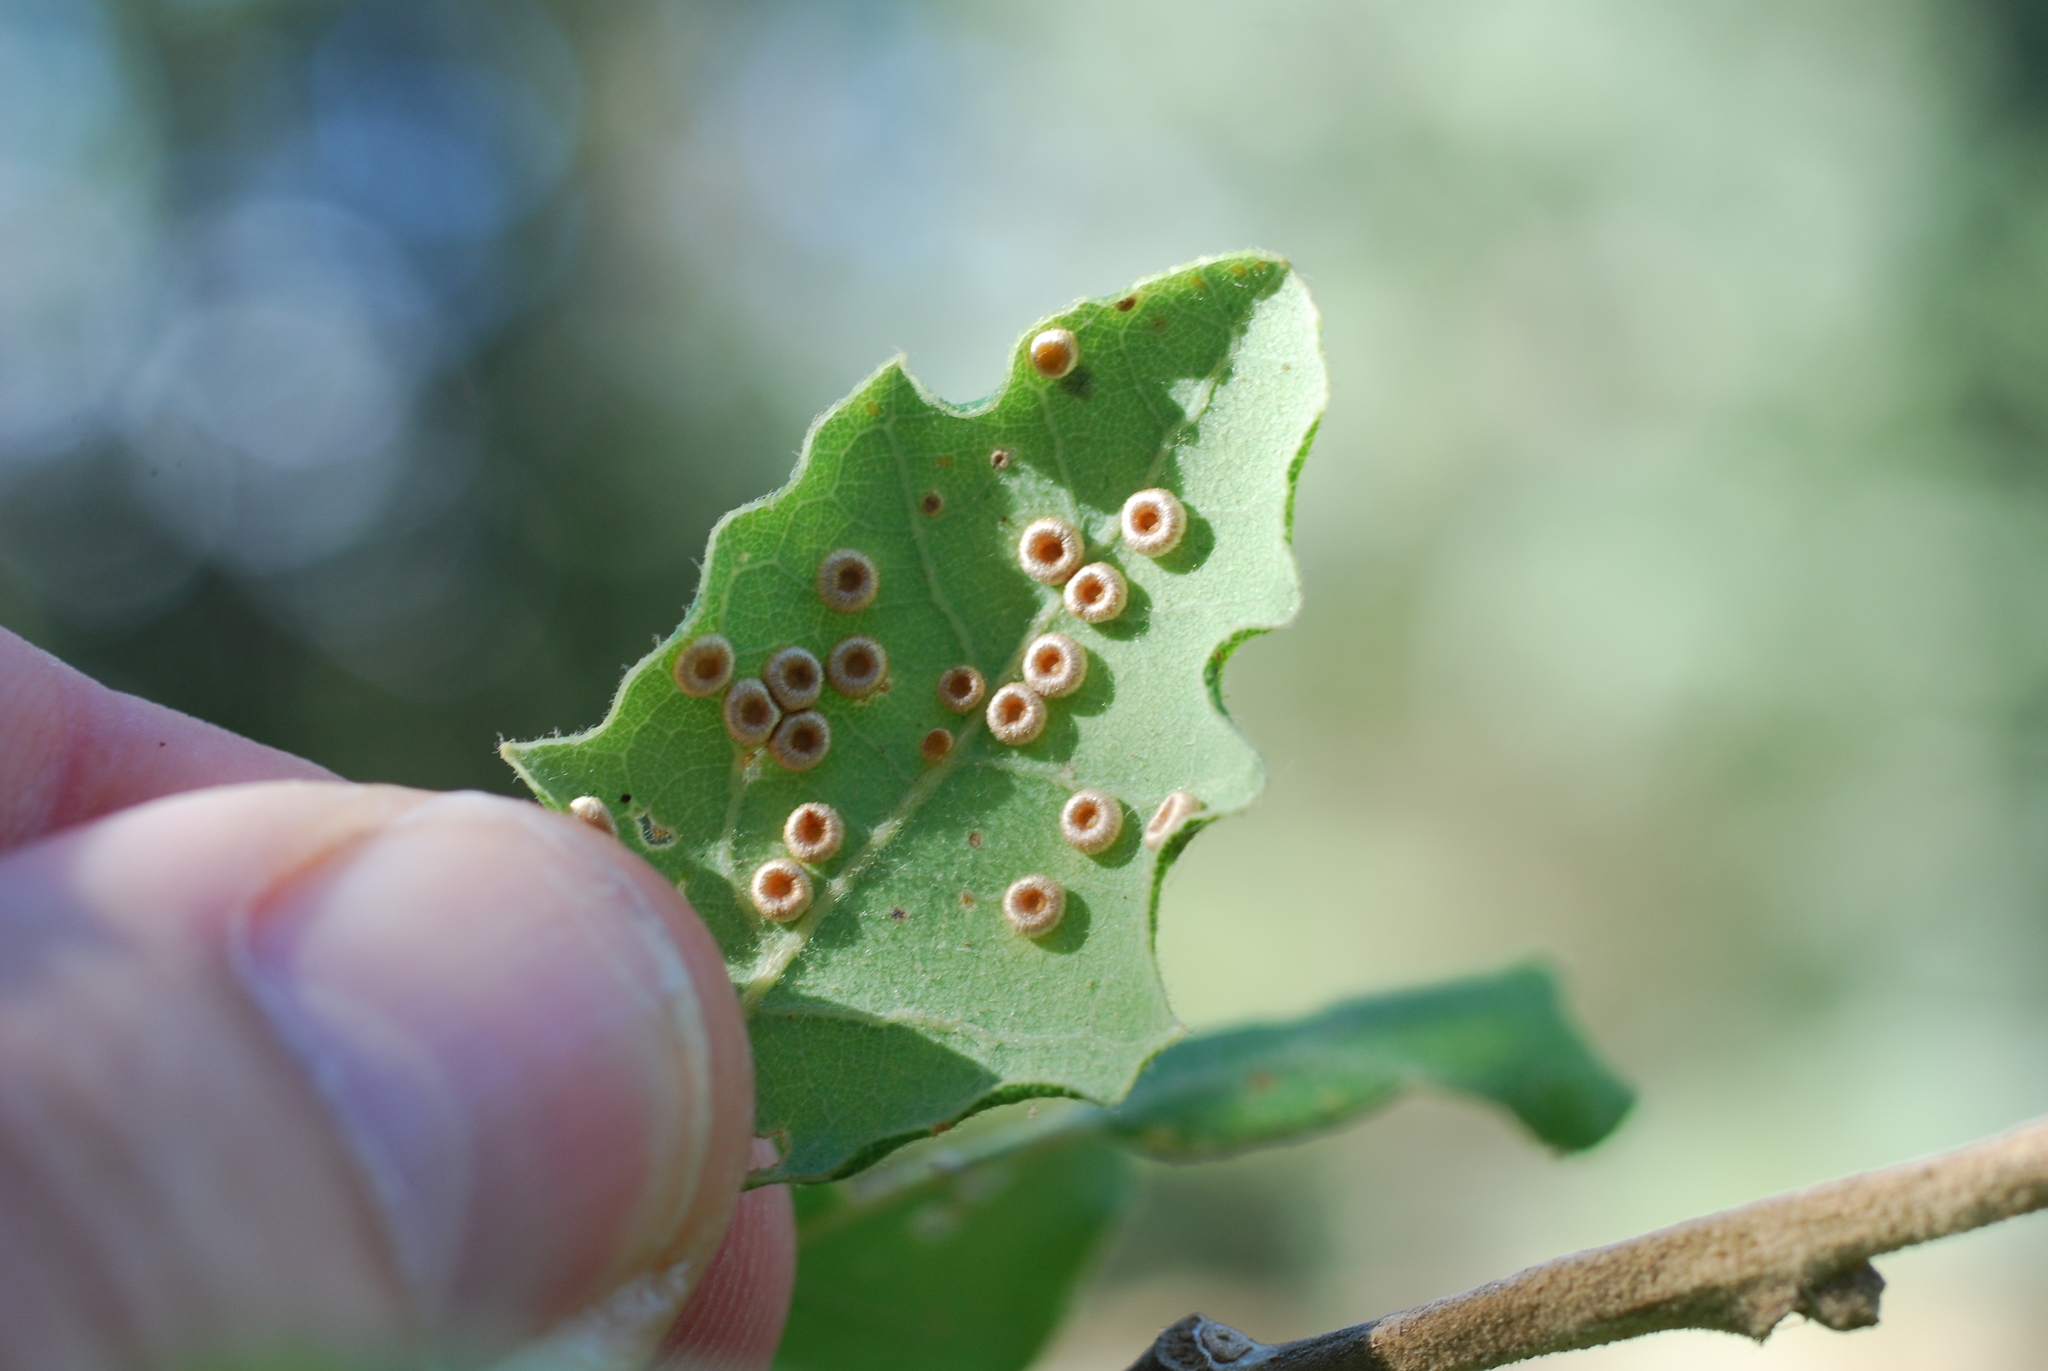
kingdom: Animalia
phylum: Arthropoda
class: Insecta
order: Hymenoptera
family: Cynipidae
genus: Neuroterus
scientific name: Neuroterus numismalis
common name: Silk-button spangle gall
